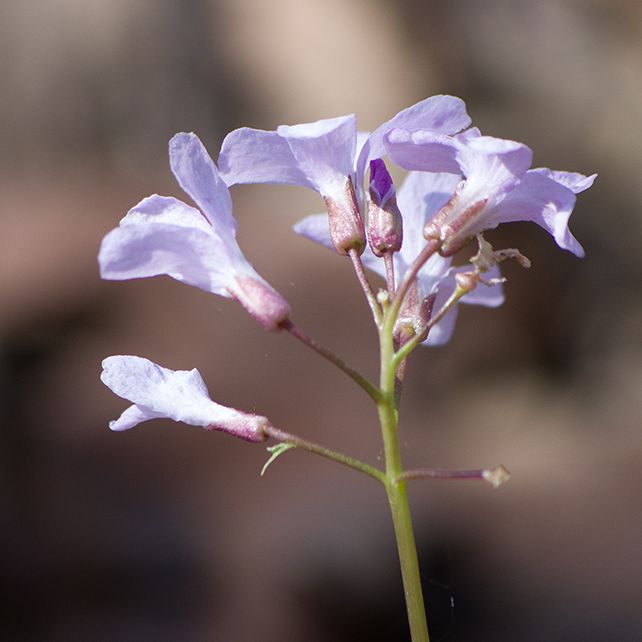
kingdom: Plantae
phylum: Tracheophyta
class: Magnoliopsida
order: Brassicales
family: Brassicaceae
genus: Cardamine
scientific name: Cardamine bulbifera
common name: Coralroot bittercress
